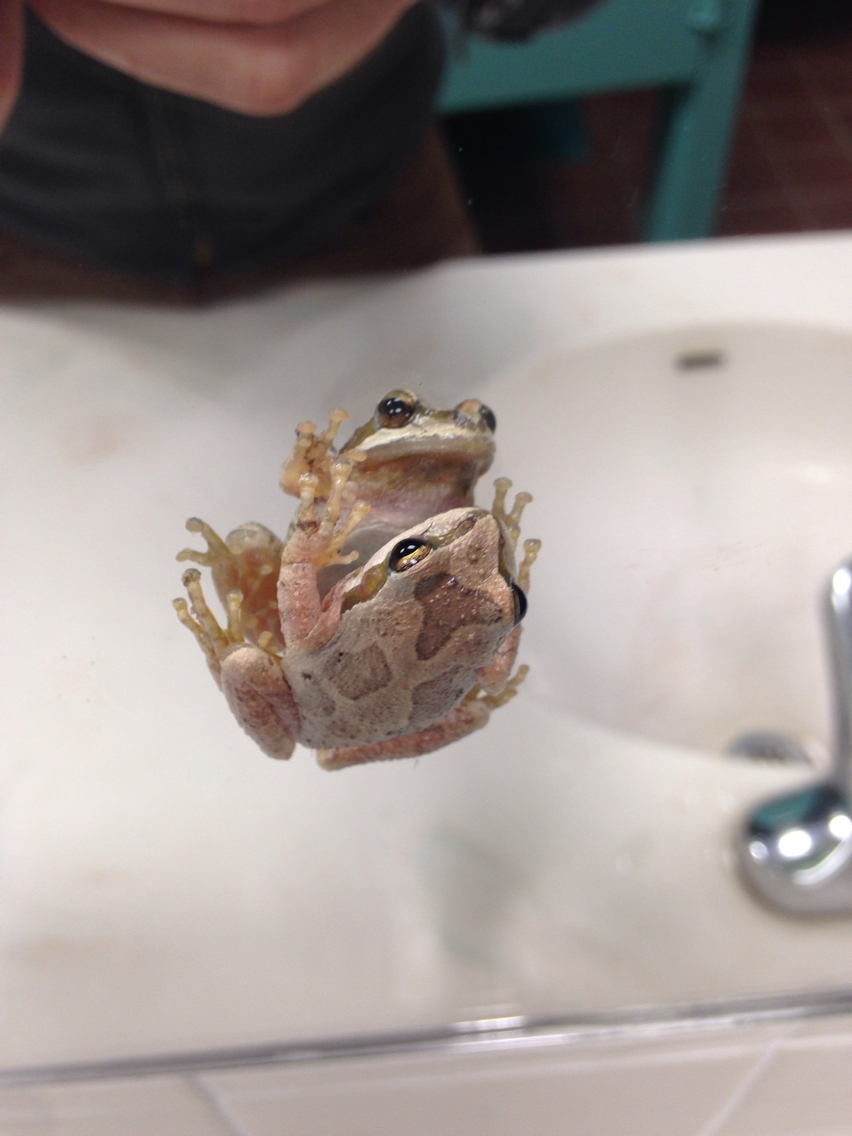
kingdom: Animalia
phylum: Chordata
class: Amphibia
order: Anura
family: Hylidae
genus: Pseudacris
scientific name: Pseudacris regilla
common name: Pacific chorus frog
